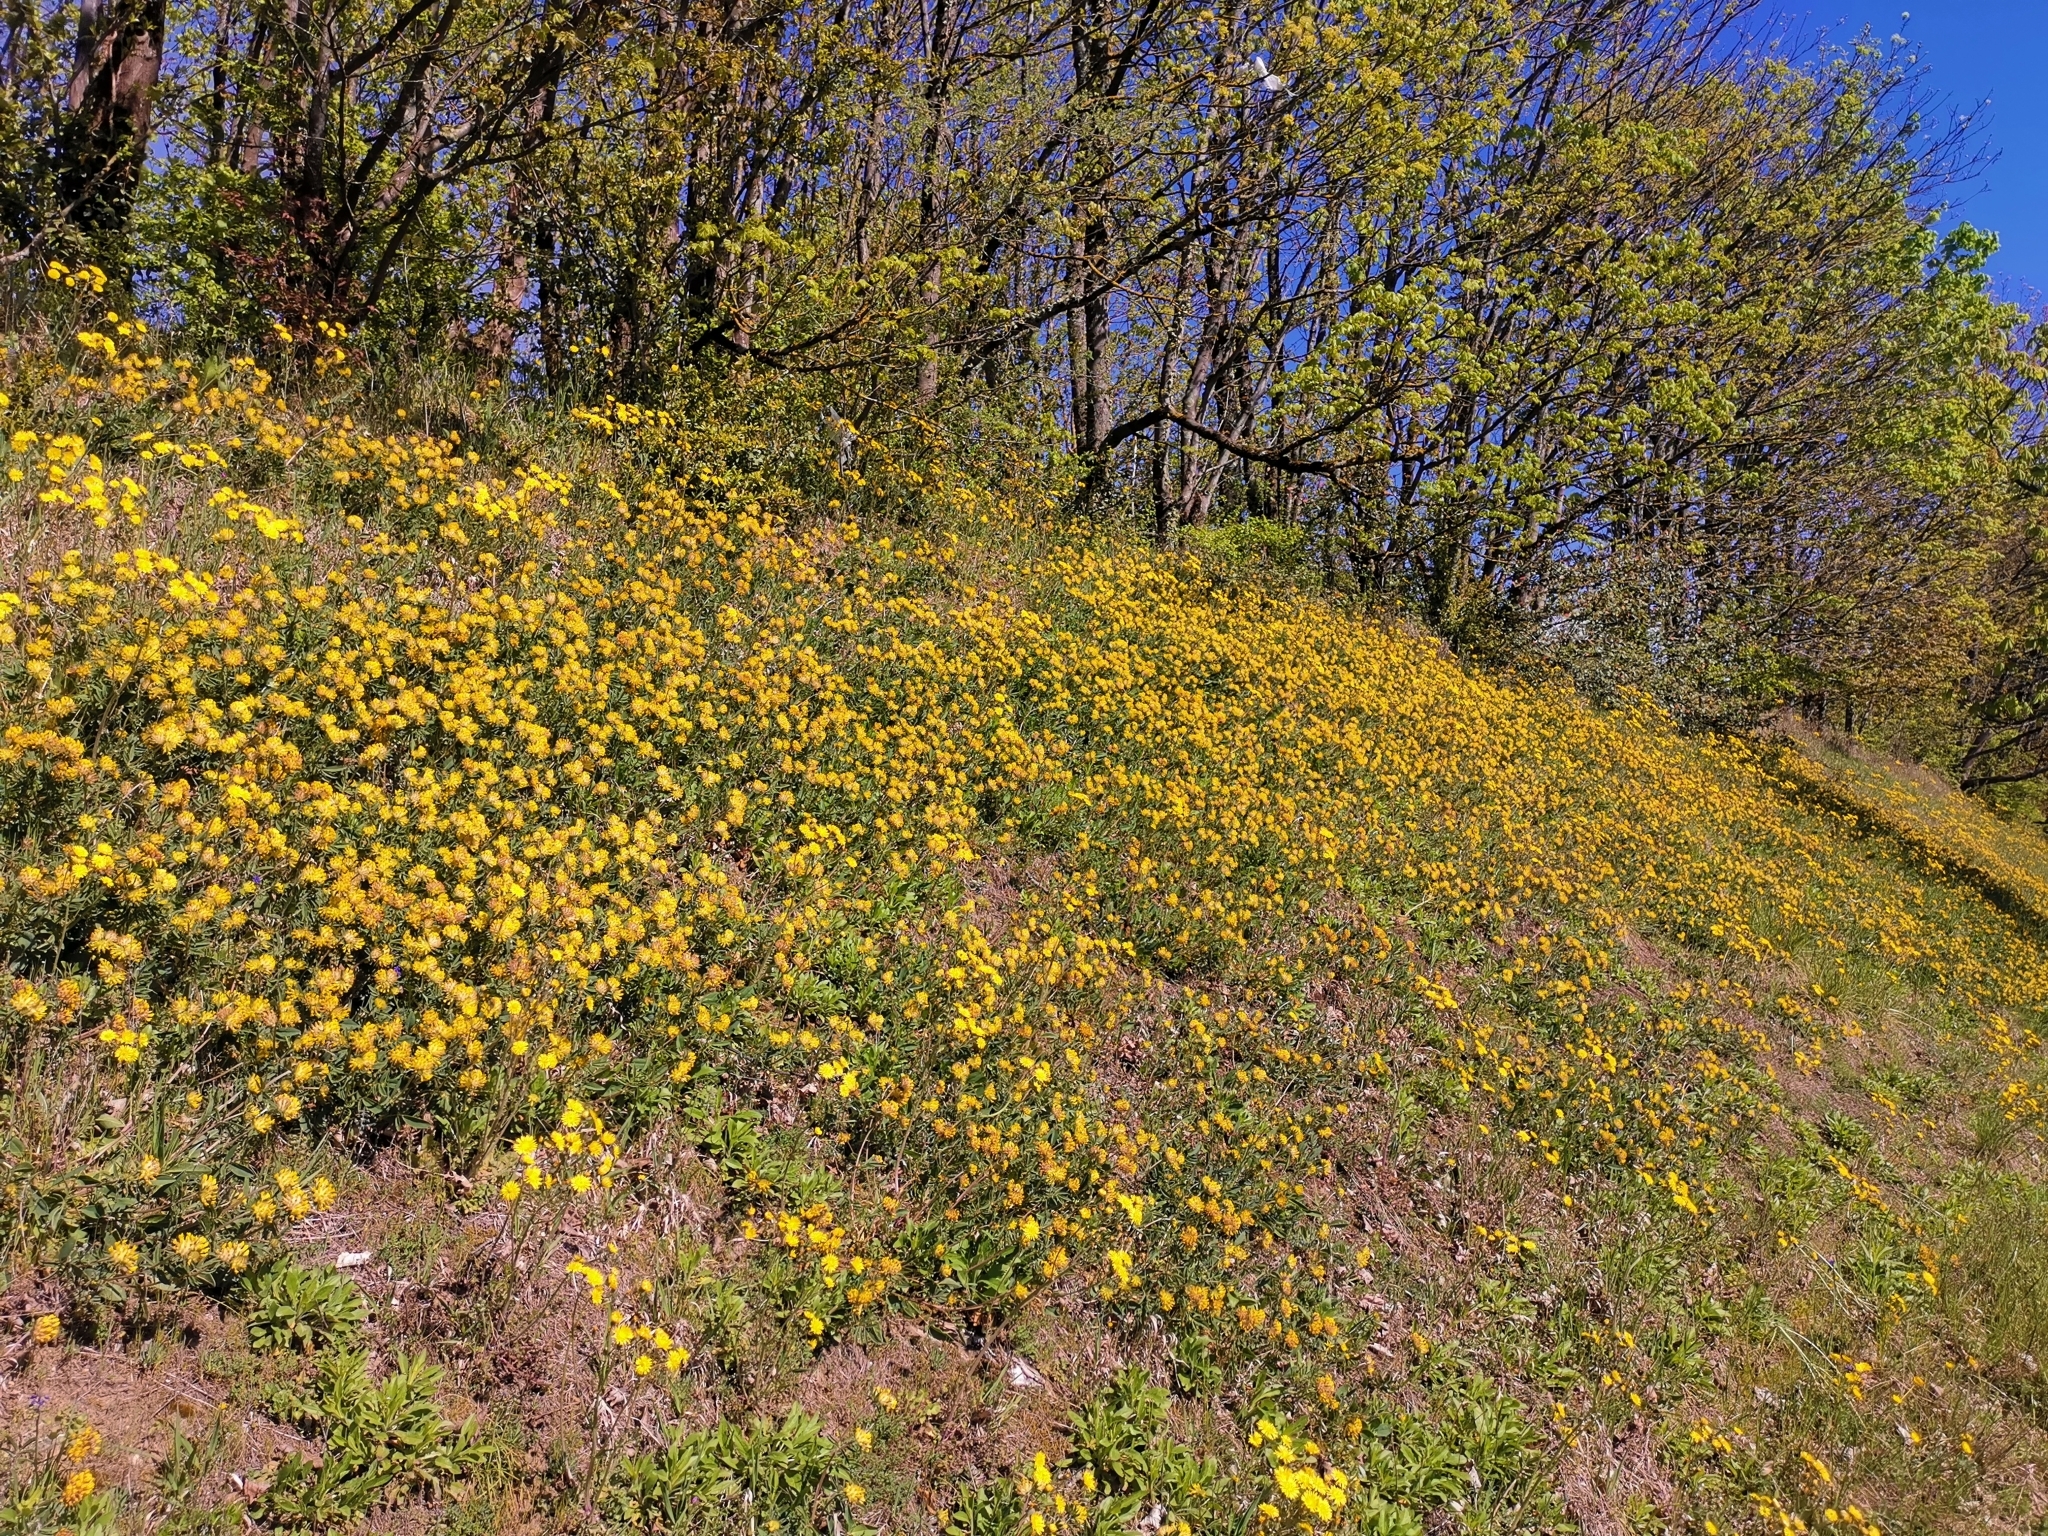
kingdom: Plantae
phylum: Tracheophyta
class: Magnoliopsida
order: Fabales
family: Fabaceae
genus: Anthyllis
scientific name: Anthyllis vulneraria
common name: Kidney vetch
